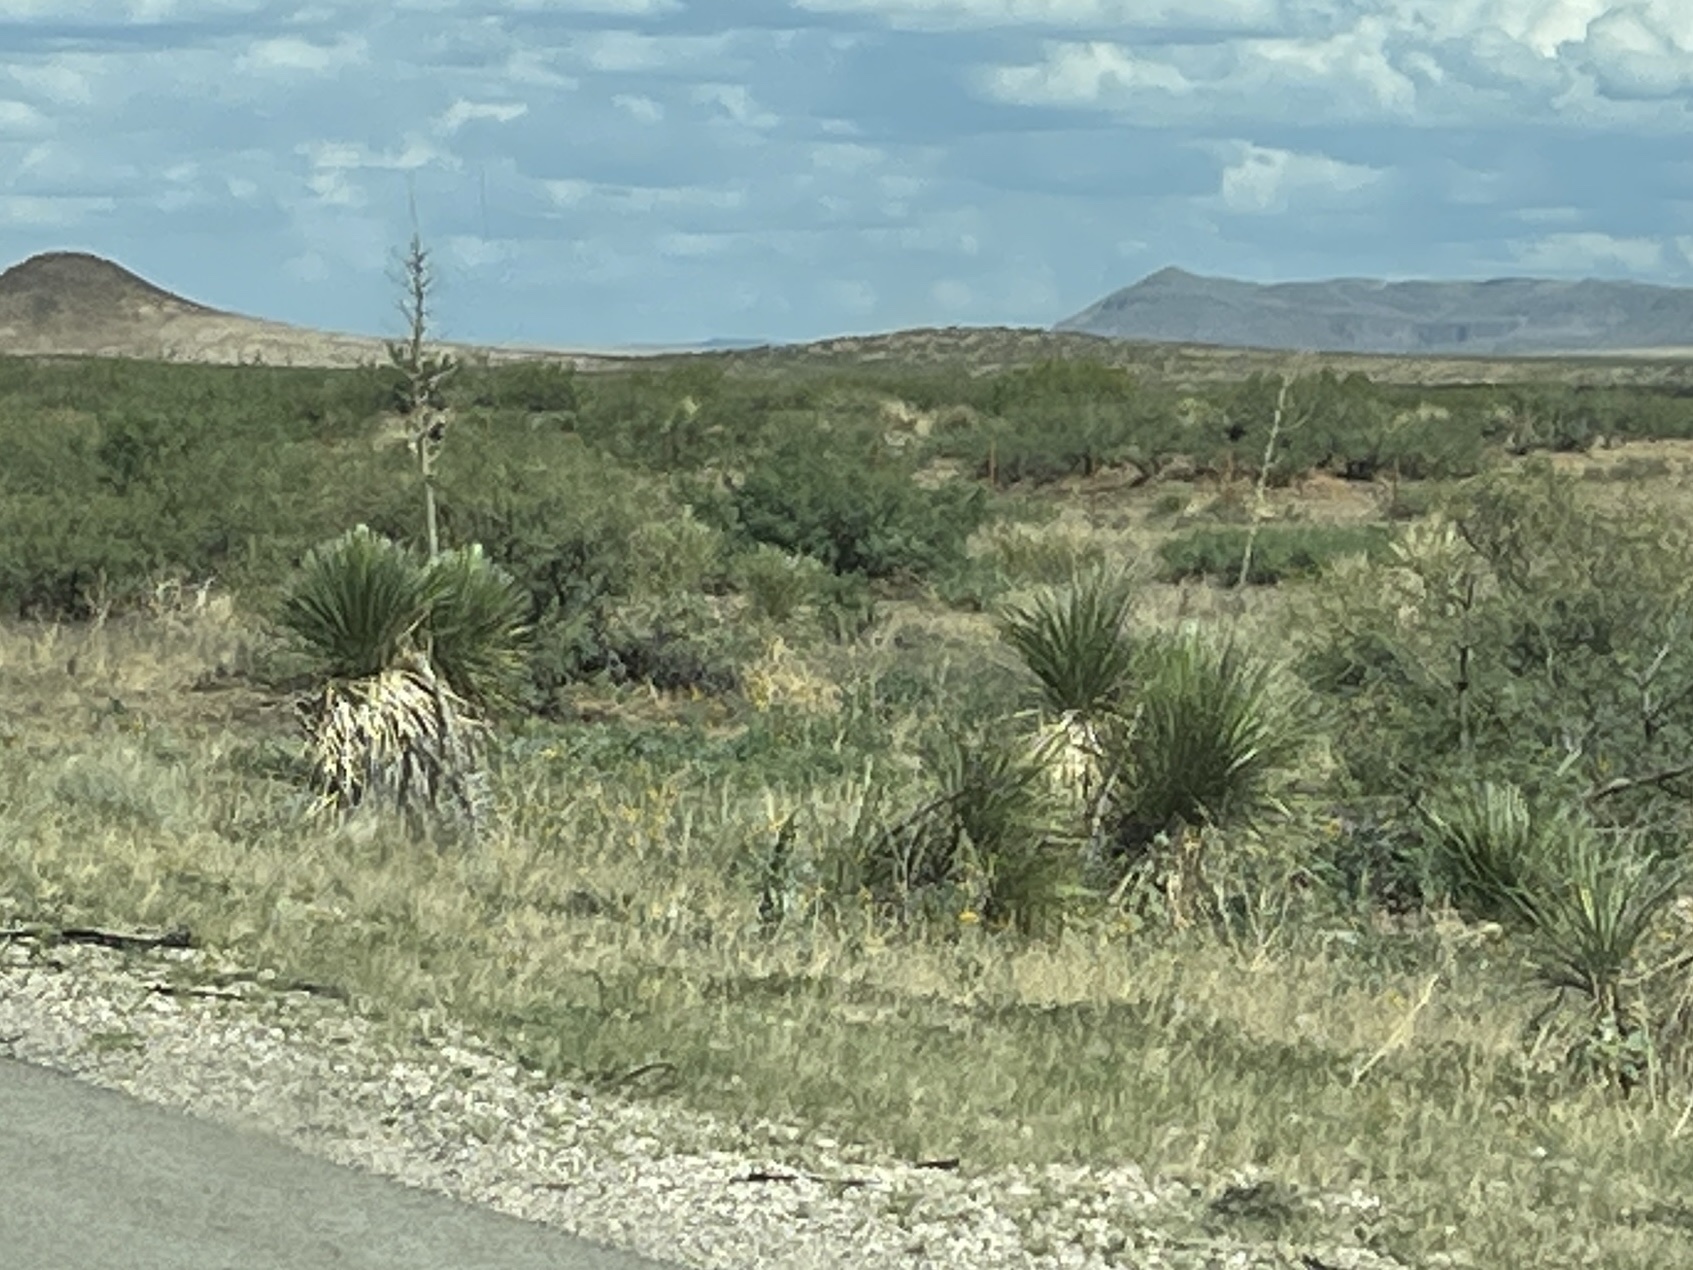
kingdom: Plantae
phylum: Tracheophyta
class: Liliopsida
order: Asparagales
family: Asparagaceae
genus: Yucca
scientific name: Yucca elata
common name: Palmella
